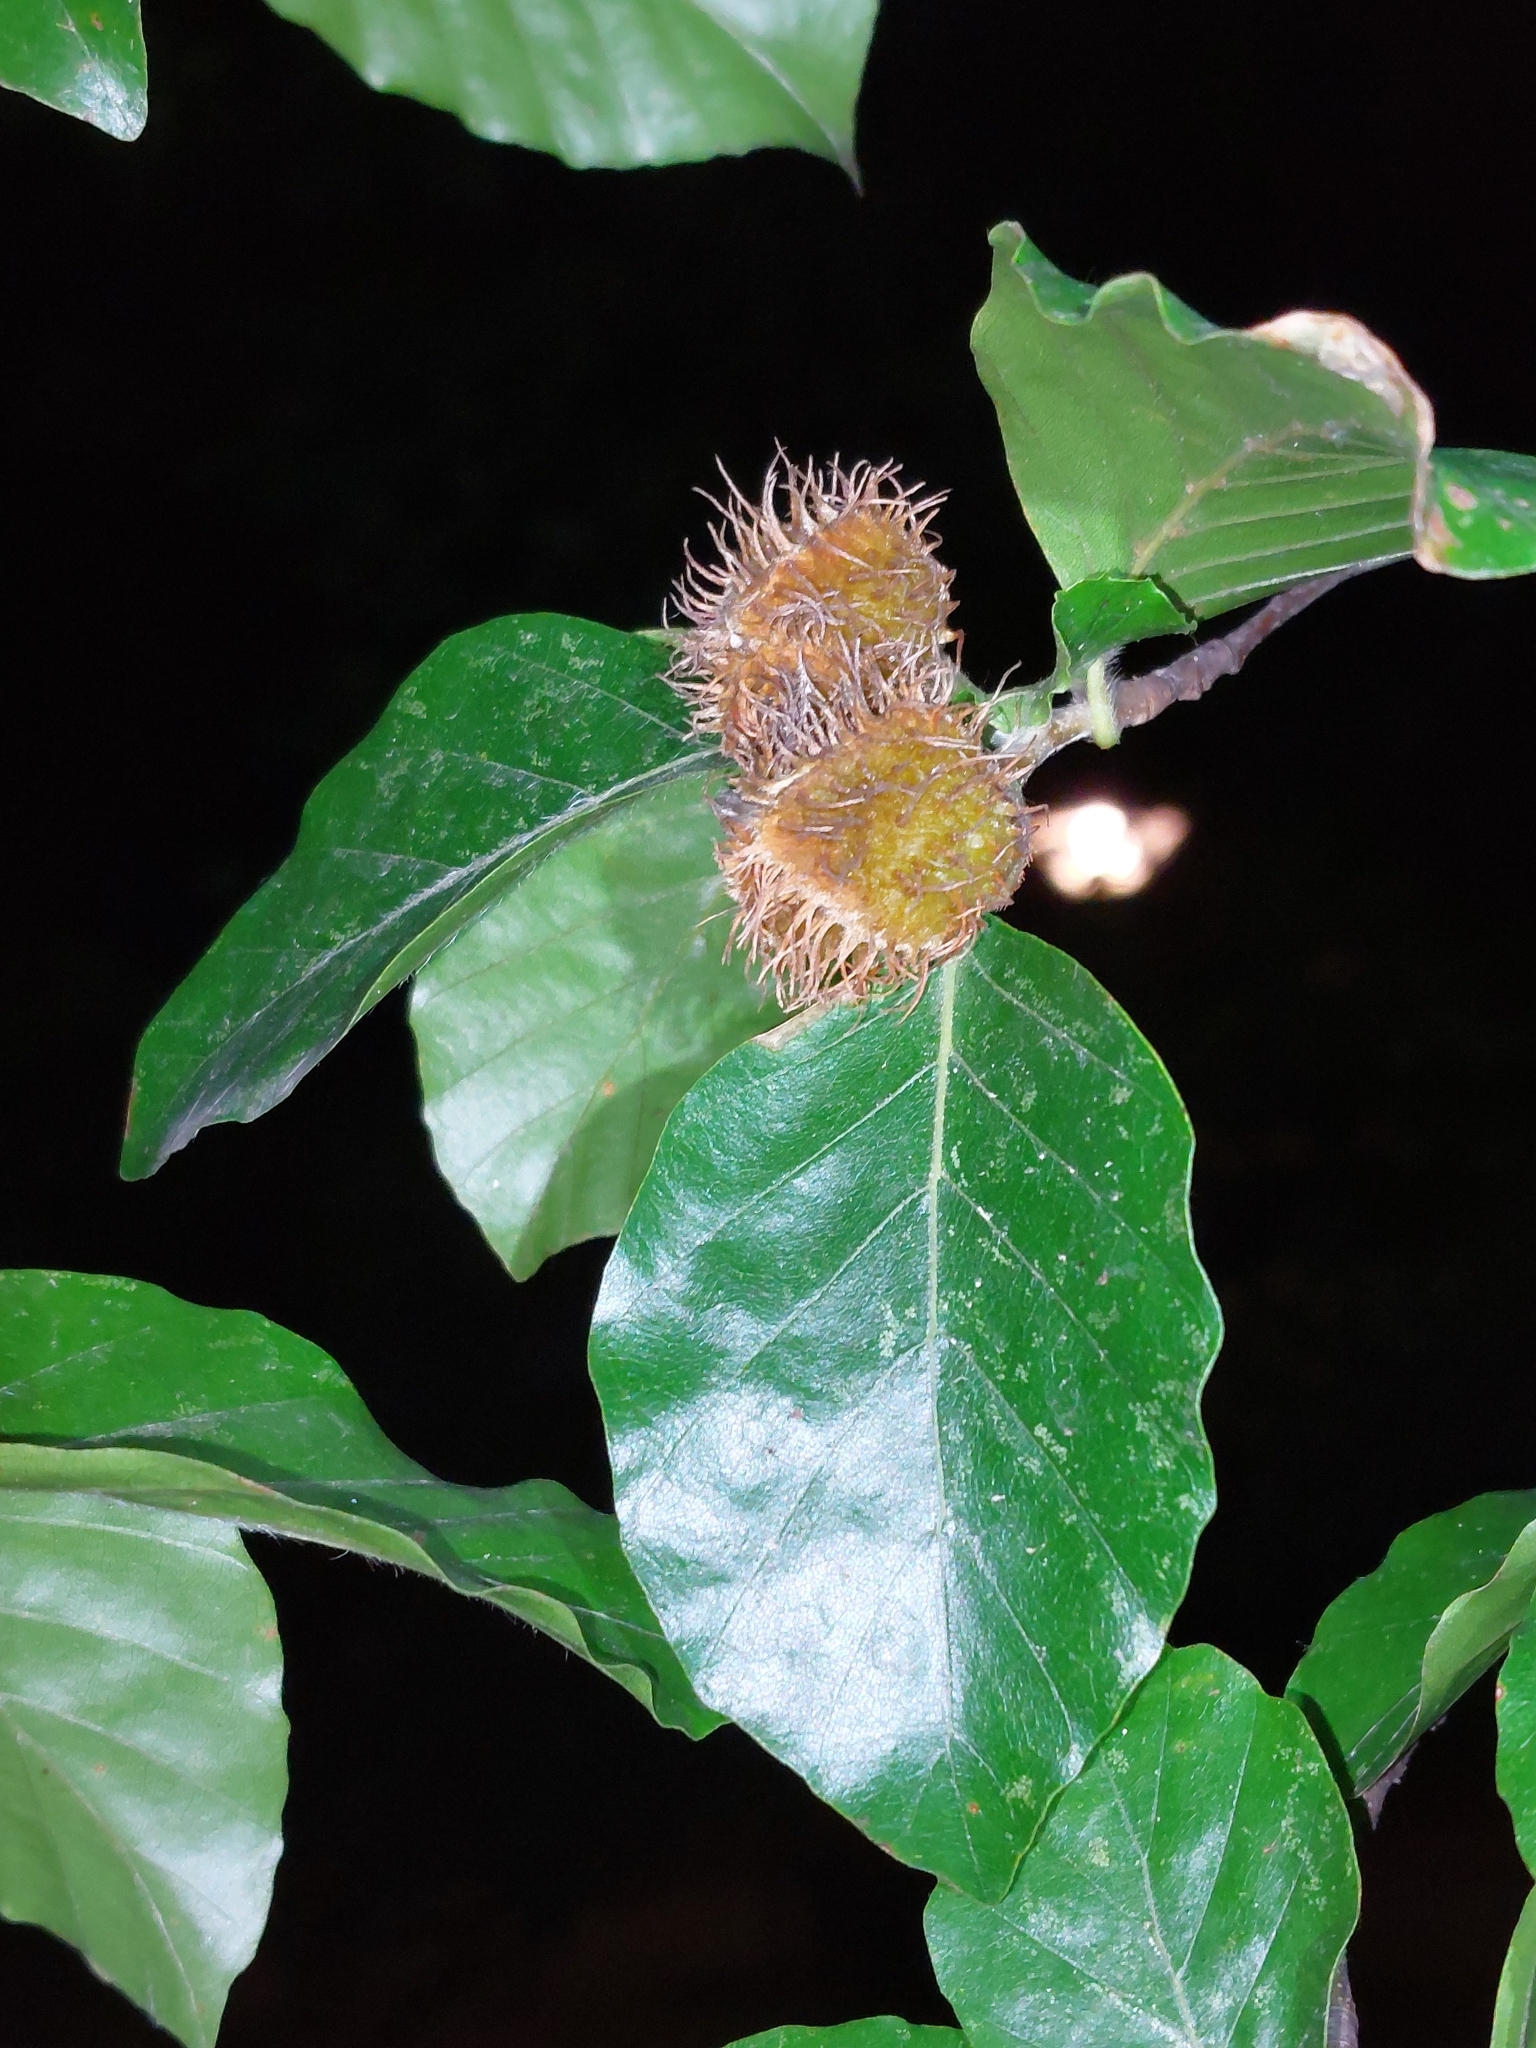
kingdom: Plantae
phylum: Tracheophyta
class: Magnoliopsida
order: Fagales
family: Fagaceae
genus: Fagus
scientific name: Fagus sylvatica
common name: Beech
